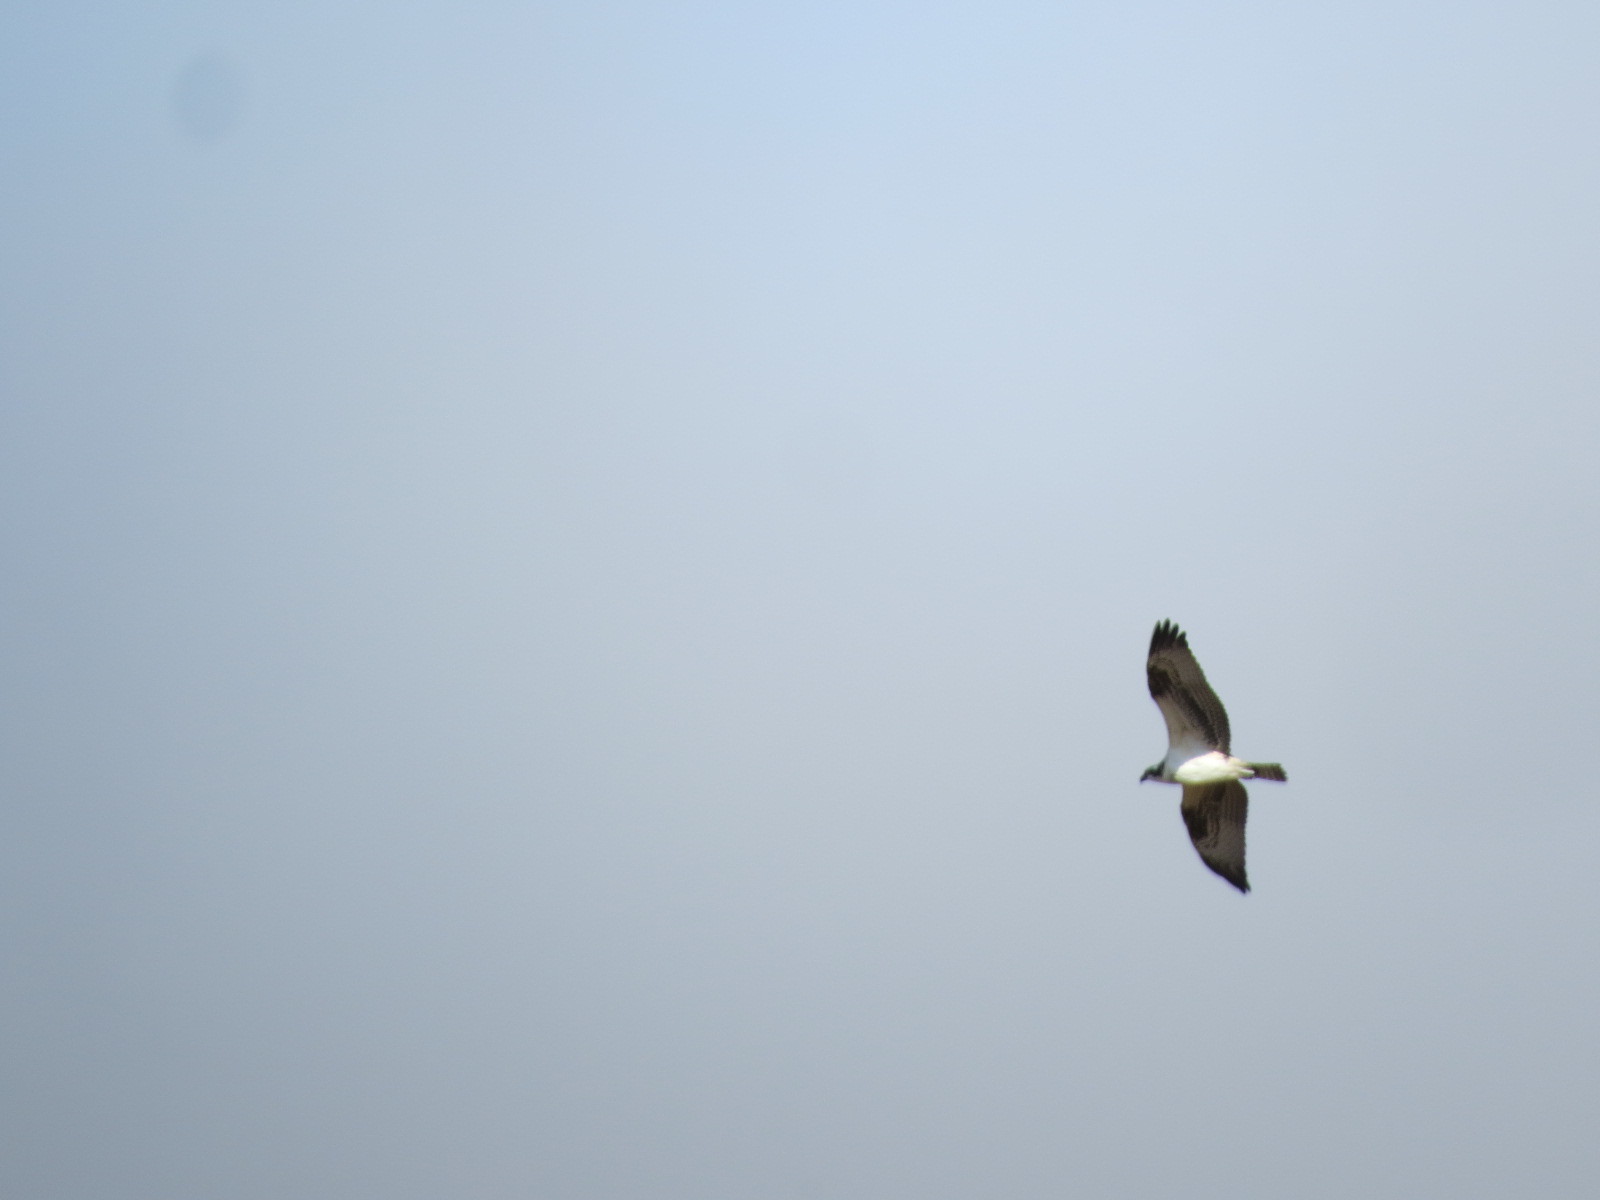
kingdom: Animalia
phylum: Chordata
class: Aves
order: Accipitriformes
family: Pandionidae
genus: Pandion
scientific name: Pandion haliaetus
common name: Osprey
